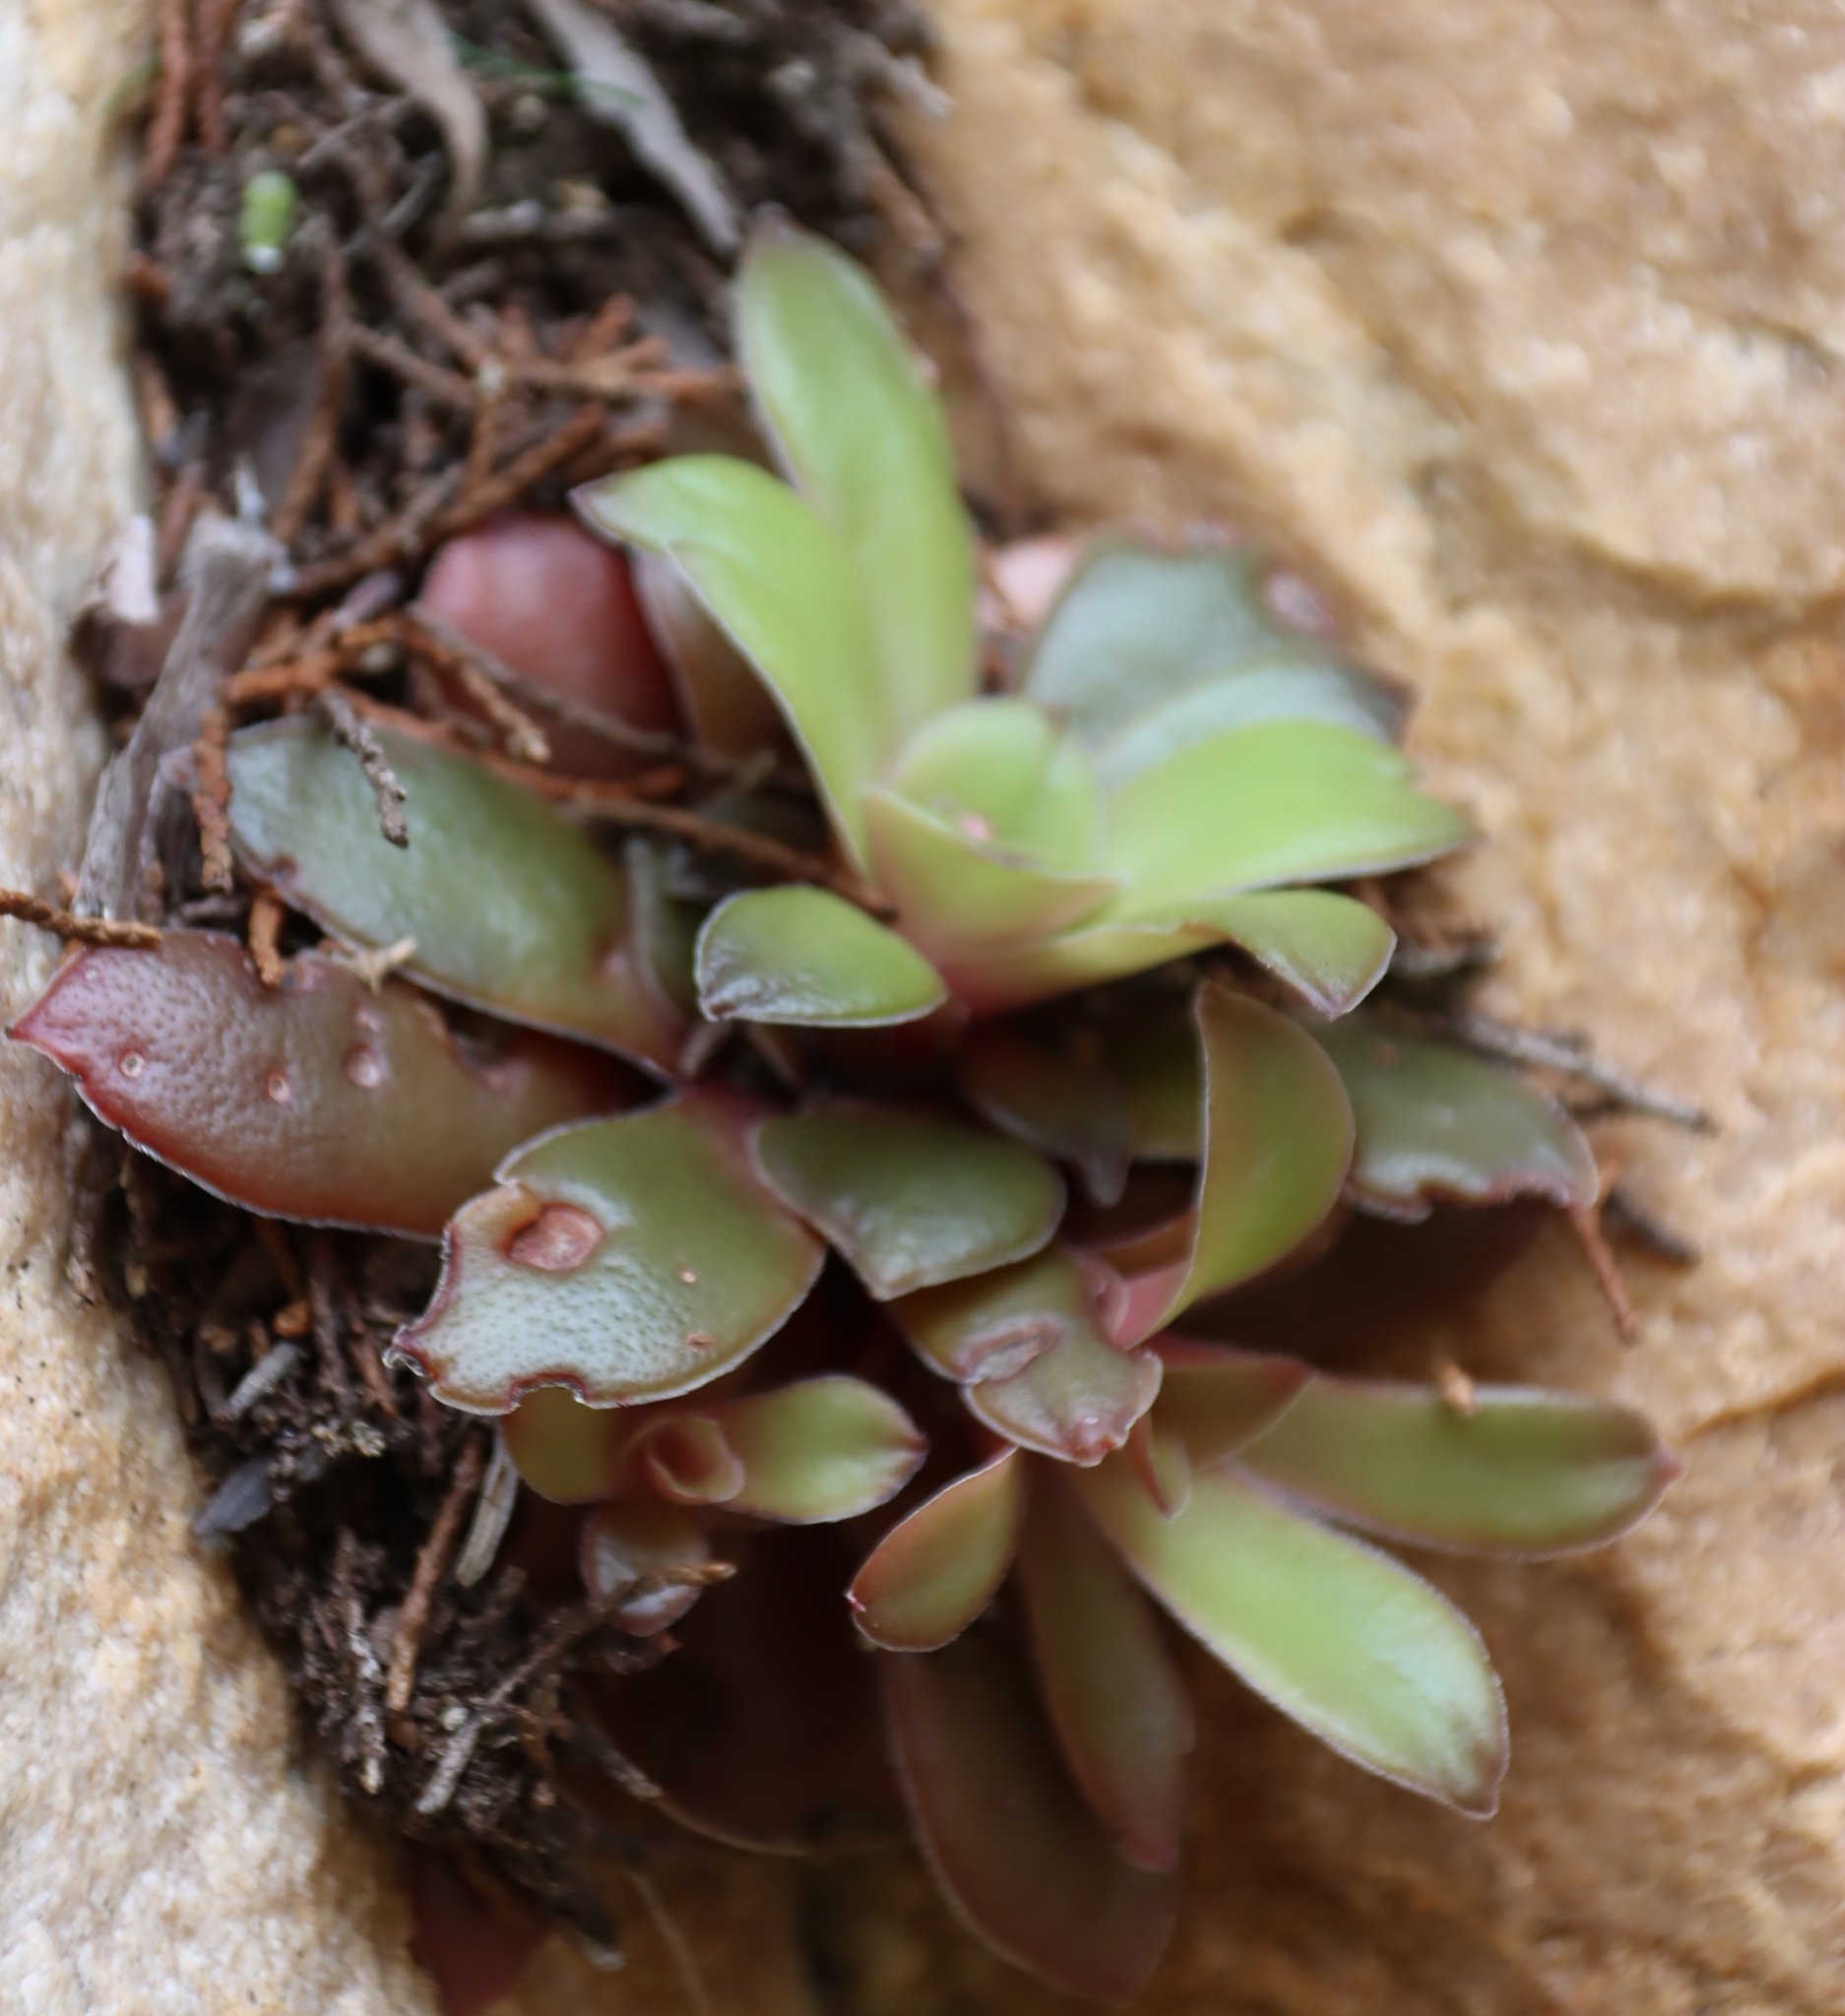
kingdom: Plantae
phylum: Tracheophyta
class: Magnoliopsida
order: Saxifragales
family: Crassulaceae
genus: Crassula
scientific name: Crassula orbicularis
